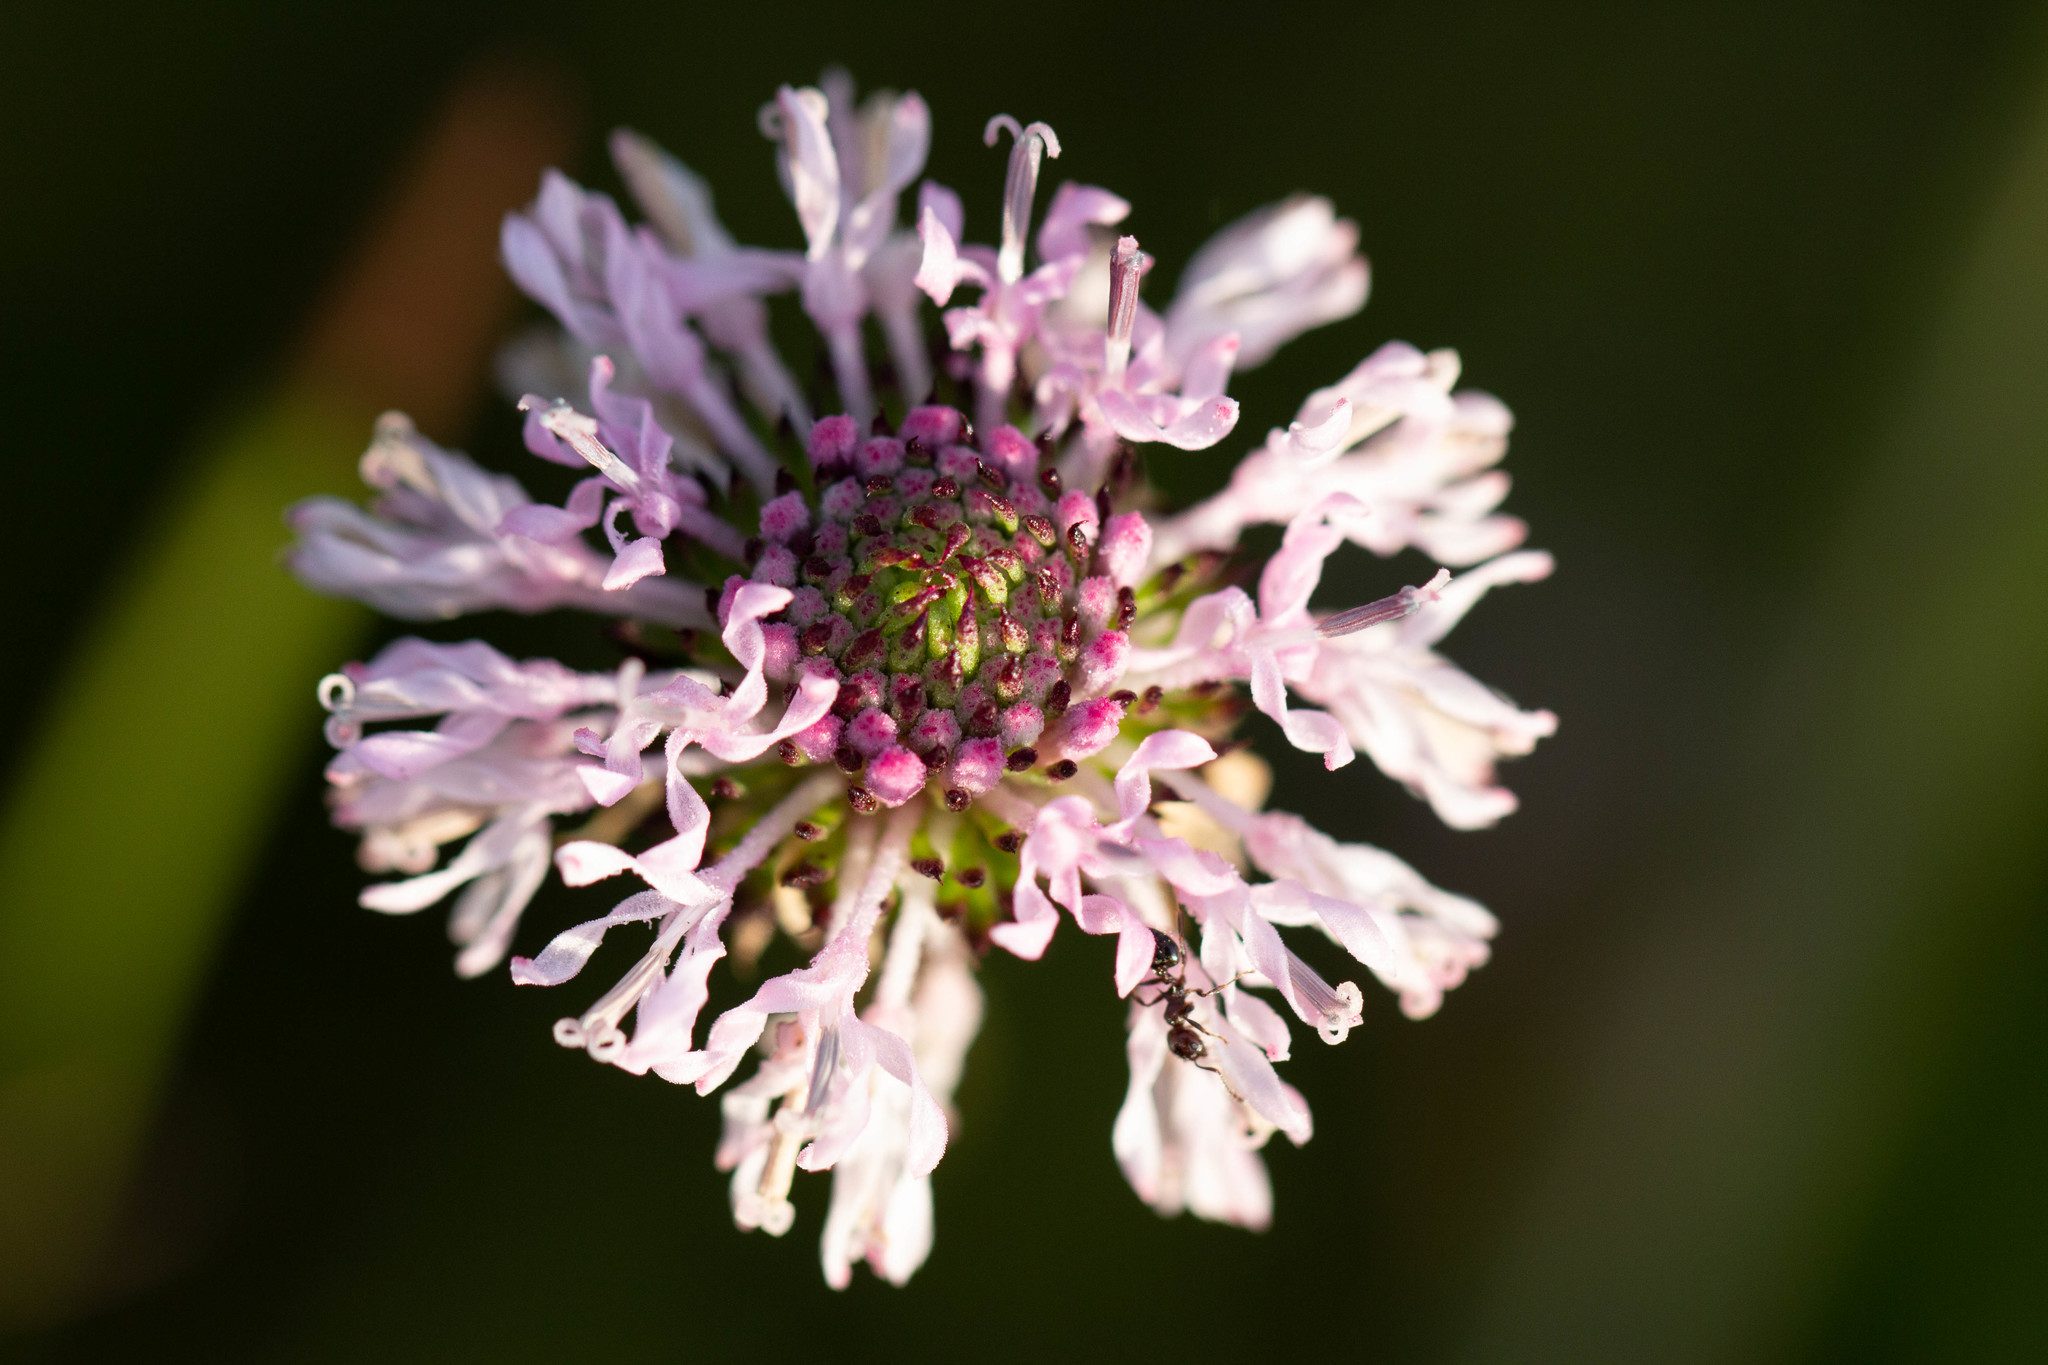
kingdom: Plantae
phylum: Tracheophyta
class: Magnoliopsida
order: Asterales
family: Asteraceae
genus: Marshallia
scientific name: Marshallia graminifolia
